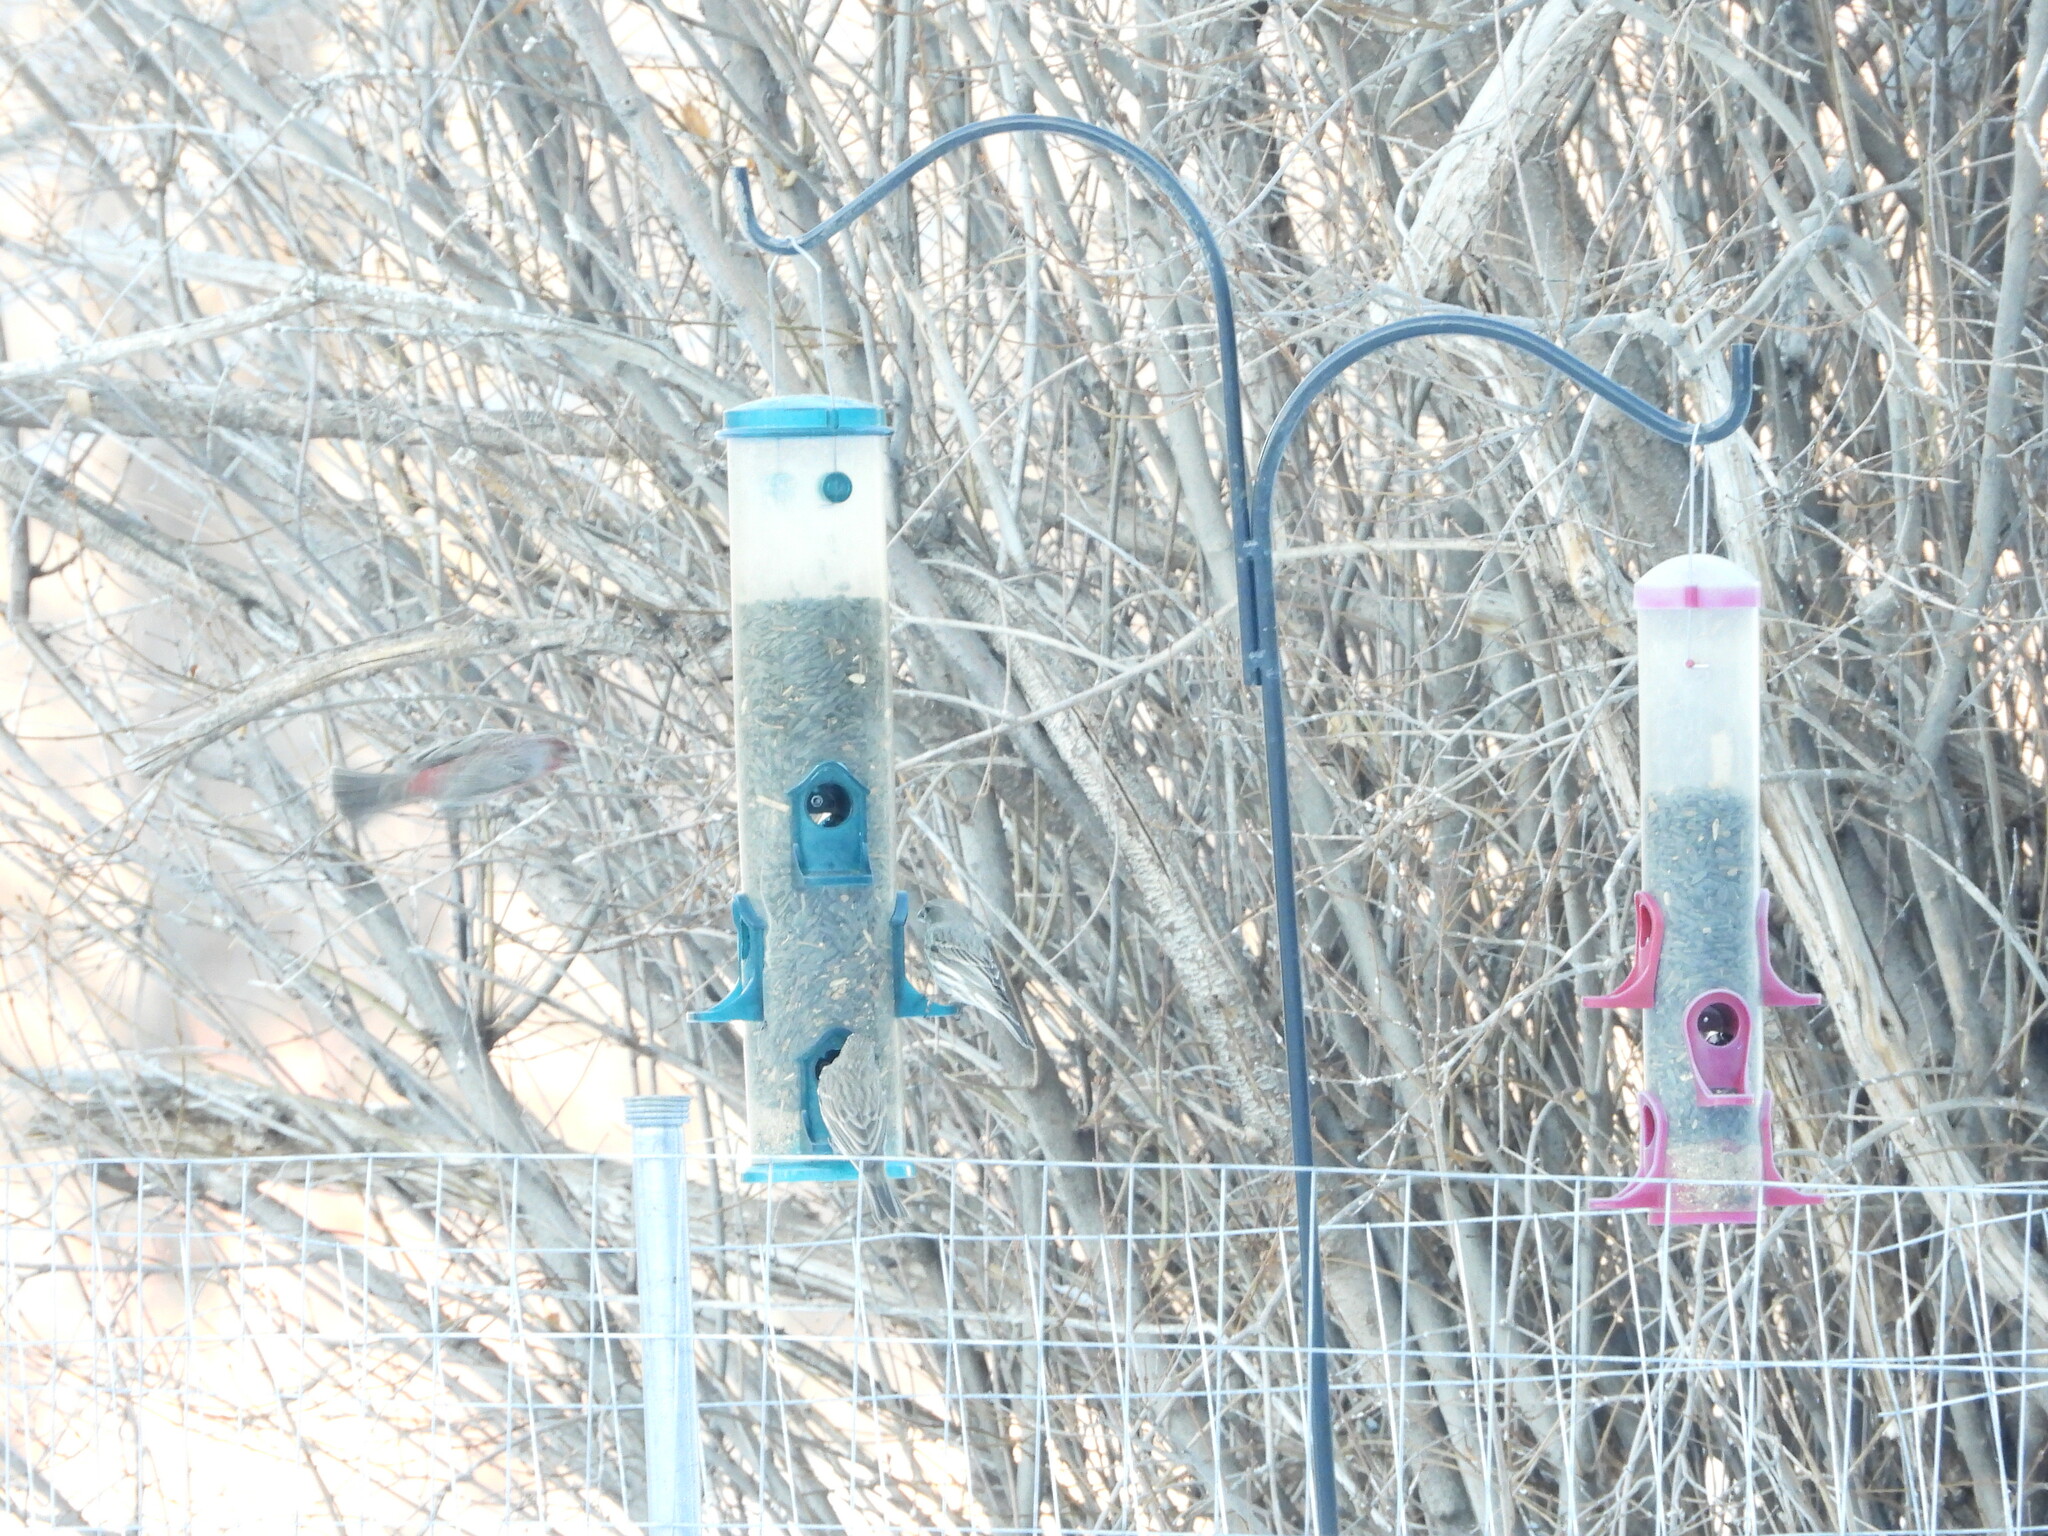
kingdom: Animalia
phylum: Chordata
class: Aves
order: Passeriformes
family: Fringillidae
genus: Haemorhous
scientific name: Haemorhous mexicanus
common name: House finch
